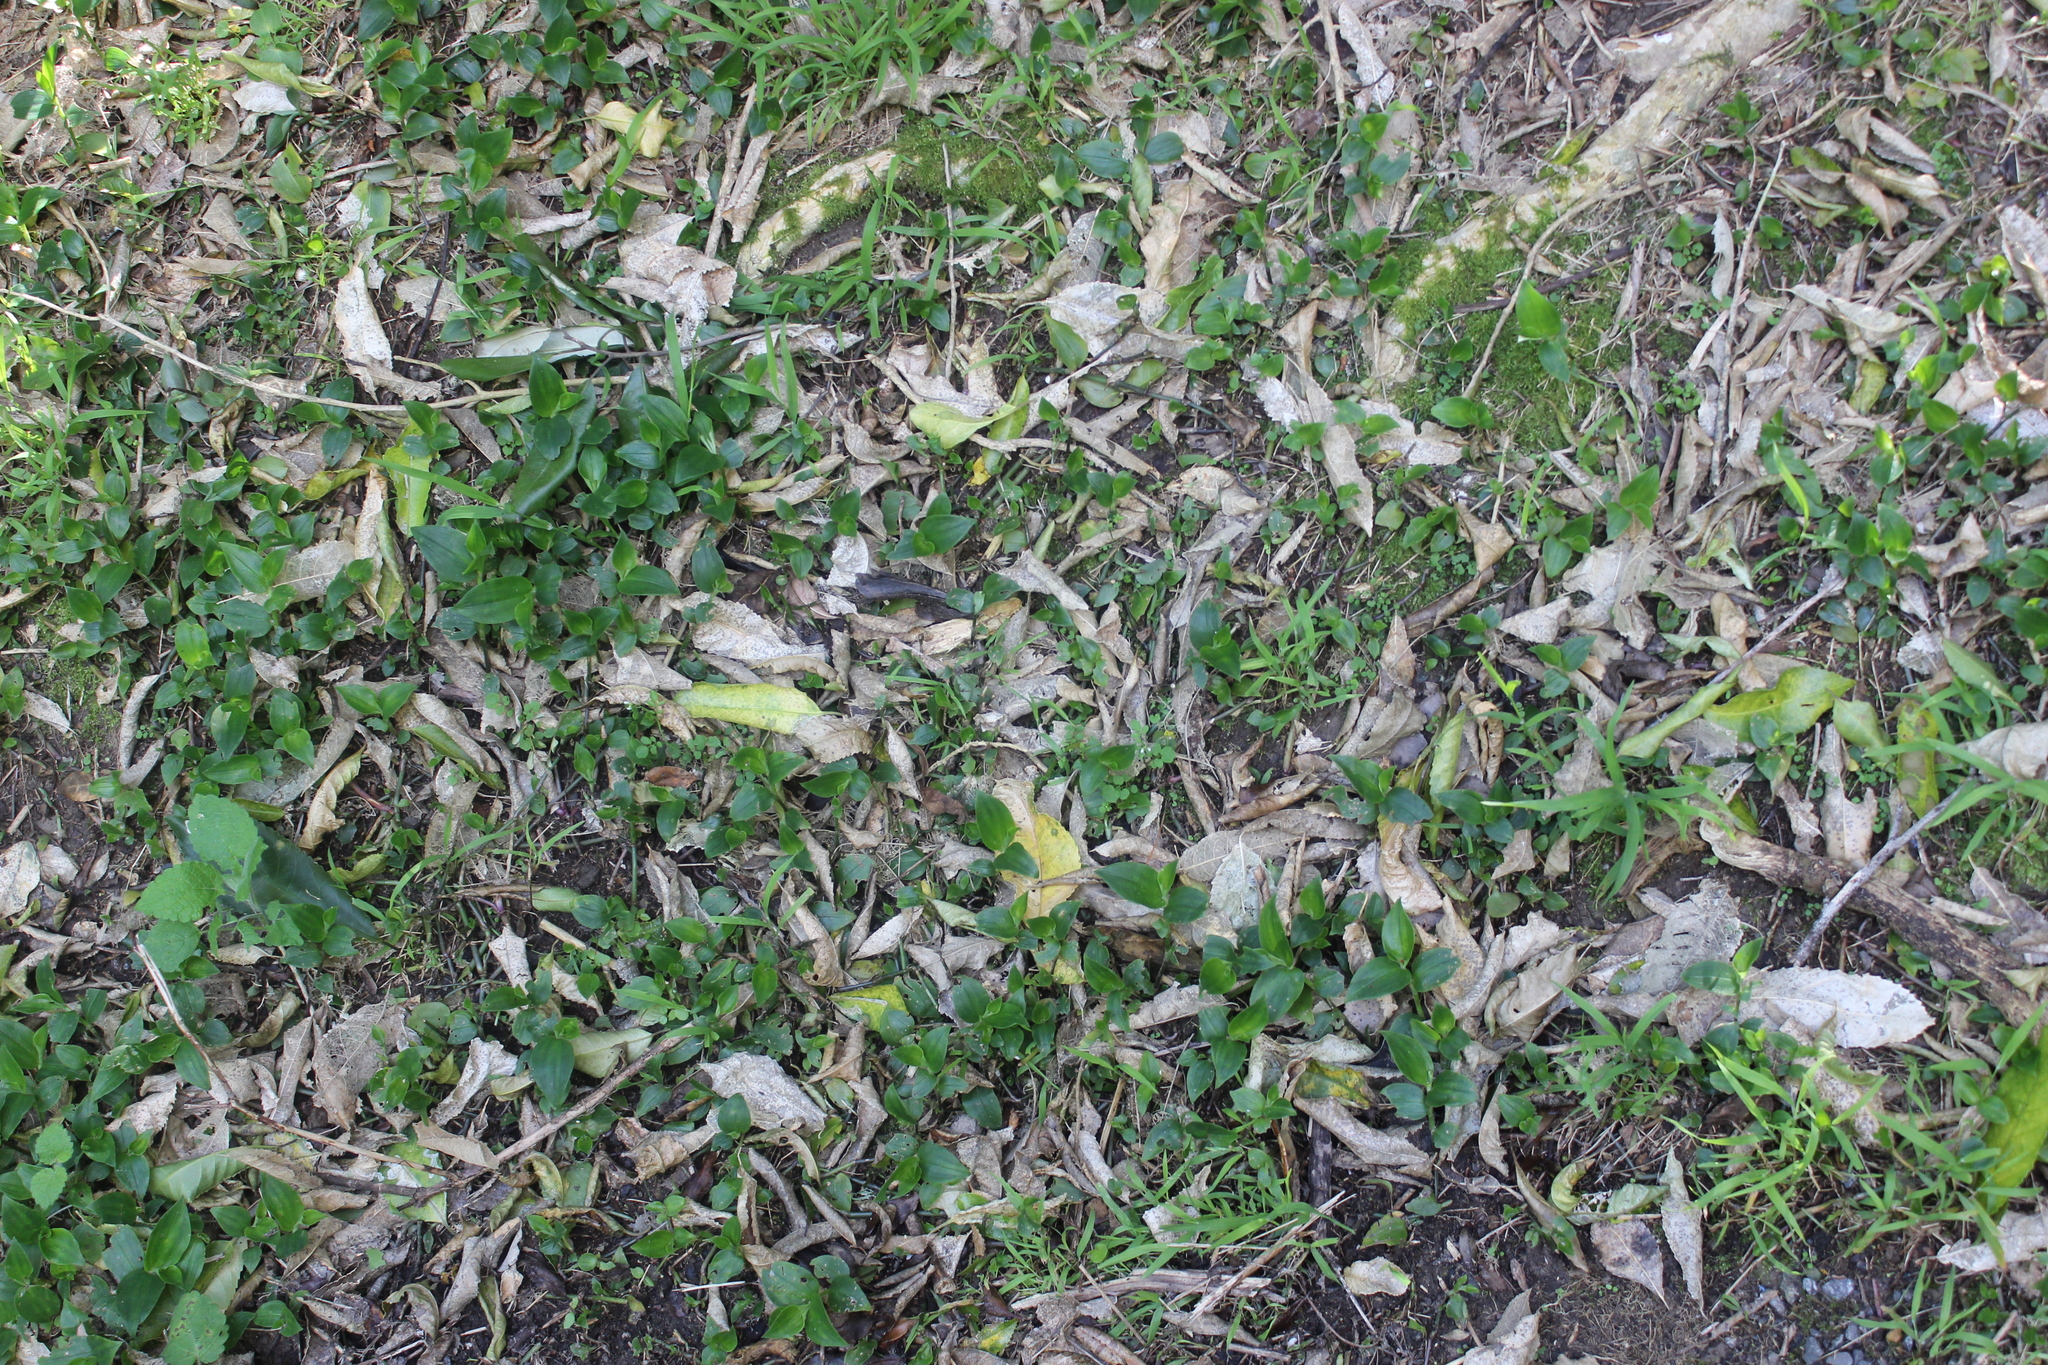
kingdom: Plantae
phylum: Tracheophyta
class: Liliopsida
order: Commelinales
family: Commelinaceae
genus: Tradescantia
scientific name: Tradescantia fluminensis
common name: Wandering-jew
